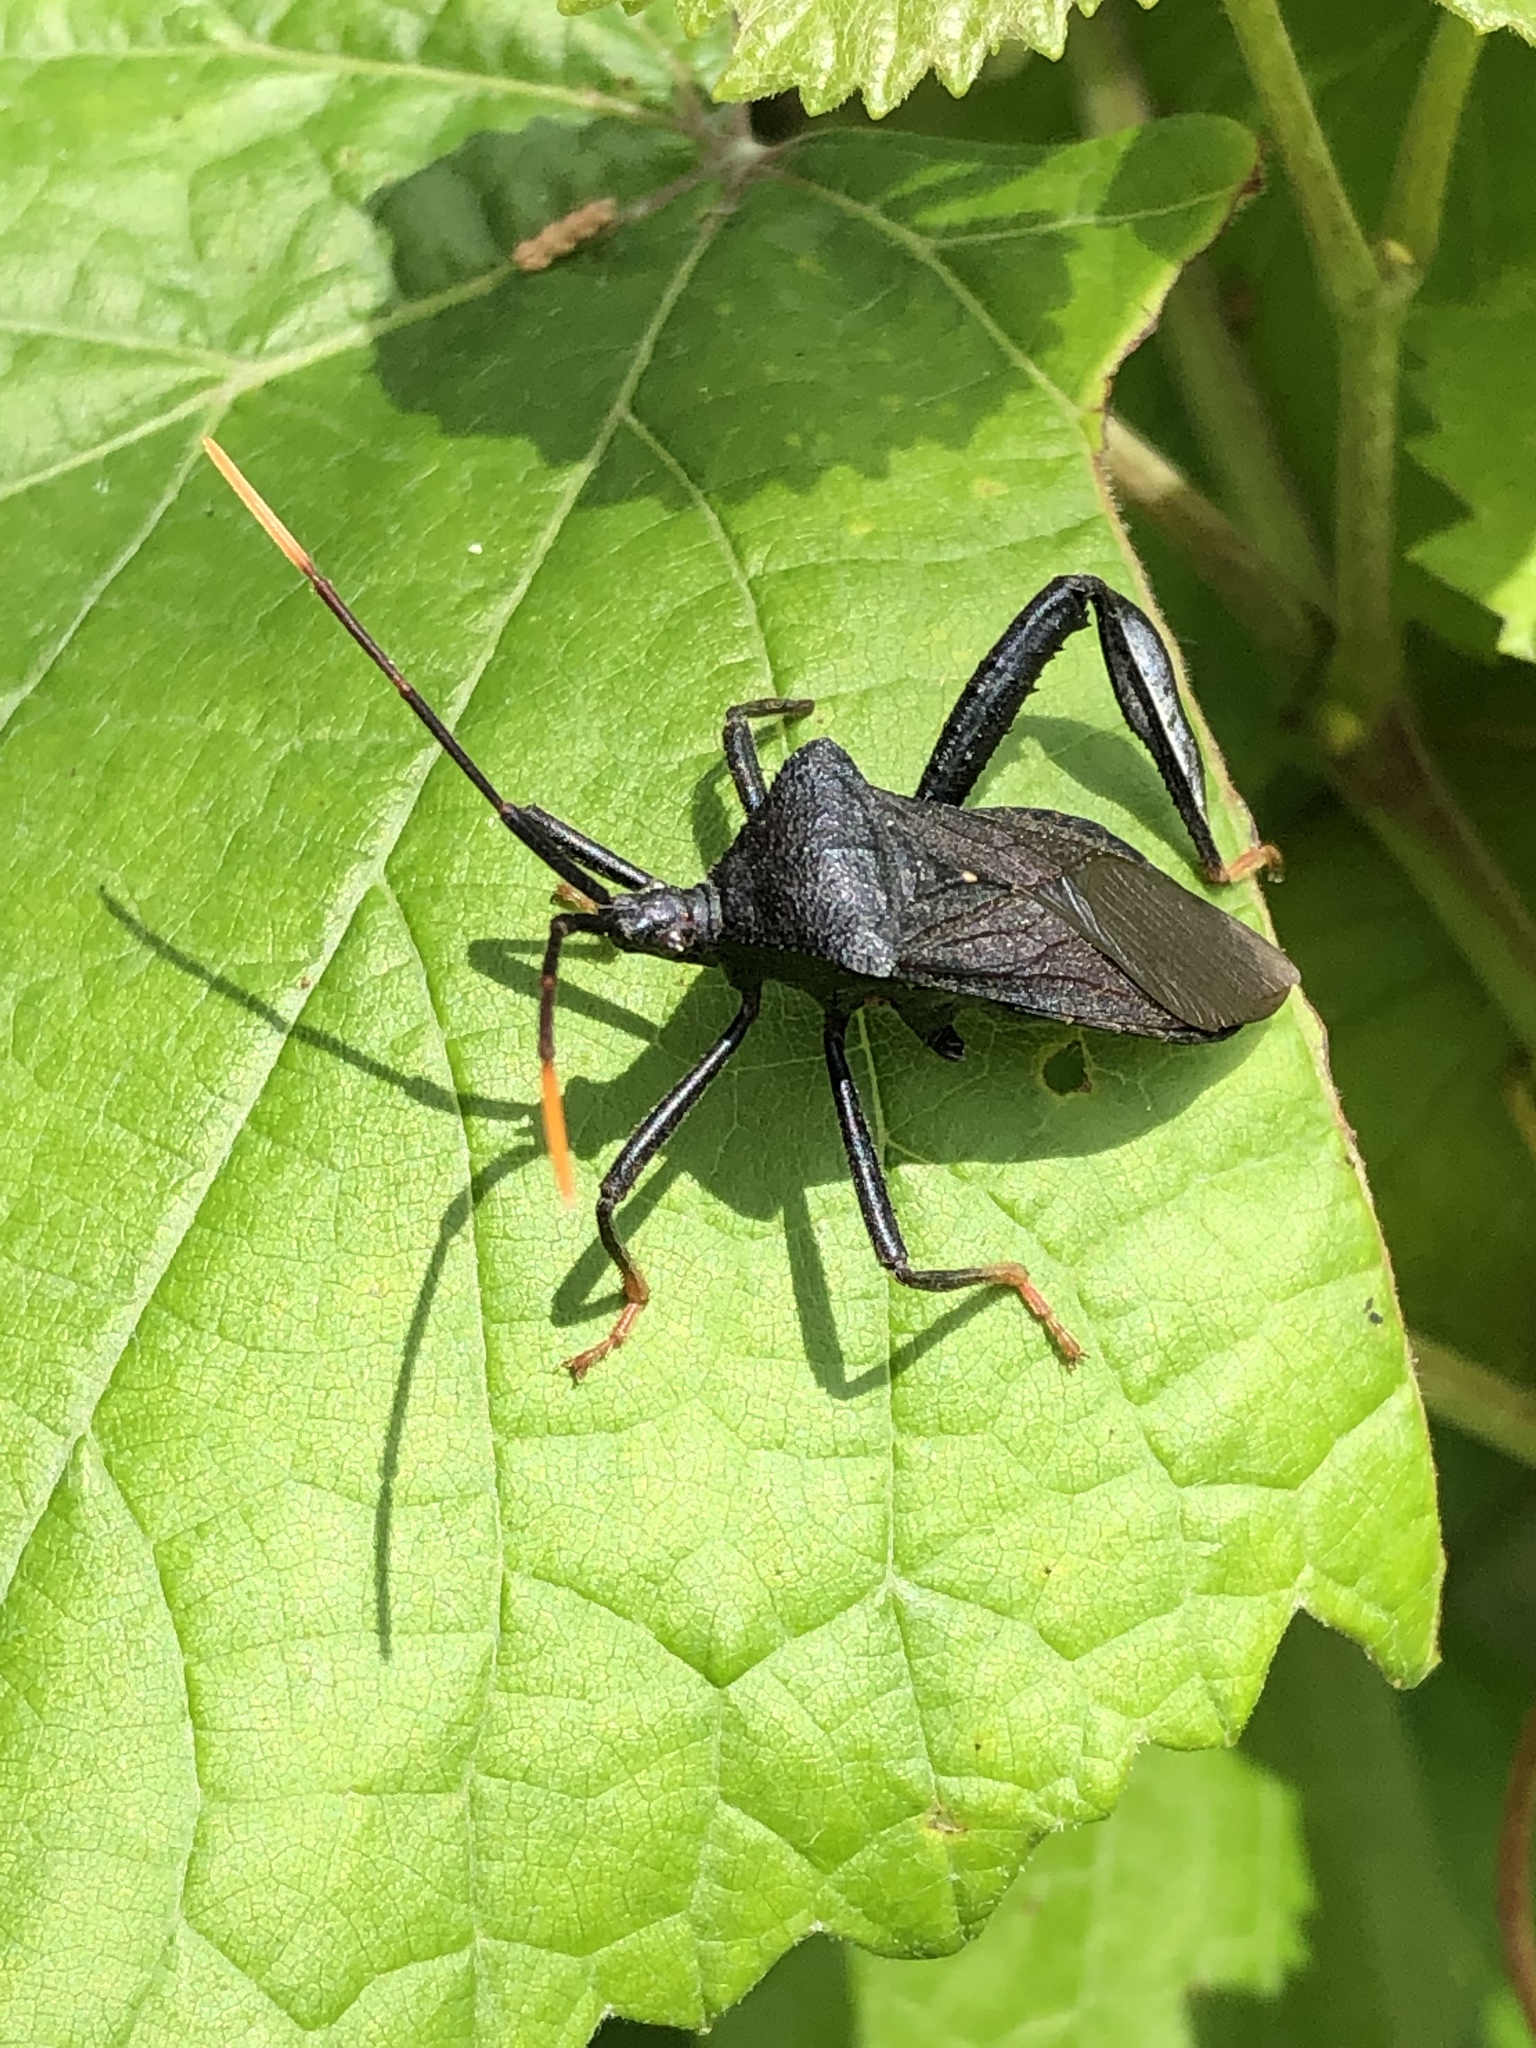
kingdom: Animalia
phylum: Arthropoda
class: Insecta
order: Hemiptera
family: Coreidae
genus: Acanthocephala
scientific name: Acanthocephala terminalis
